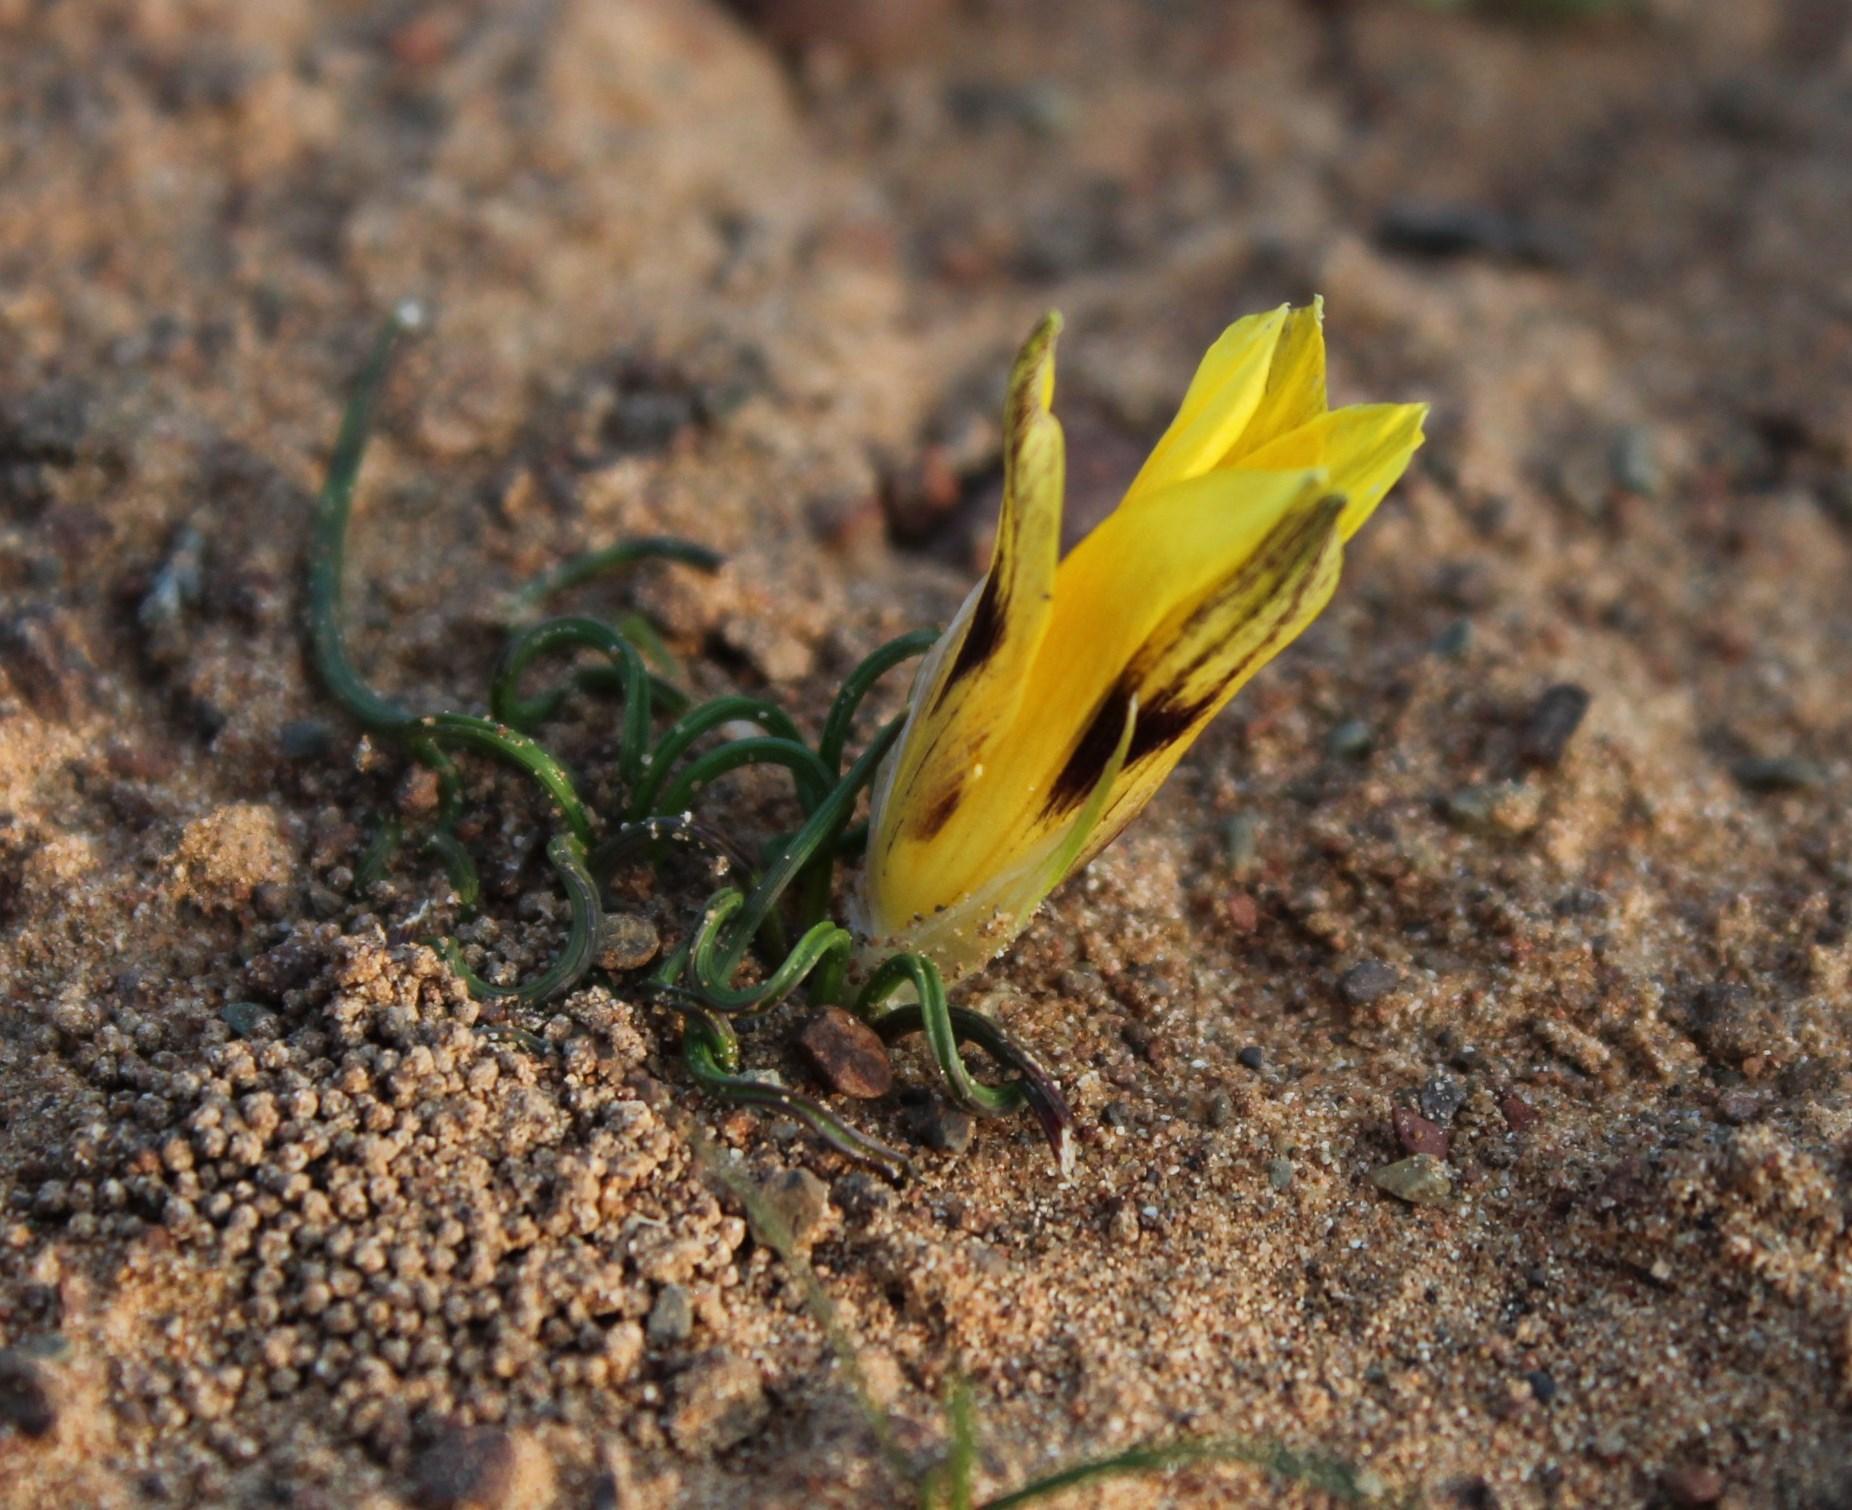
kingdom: Plantae
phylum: Tracheophyta
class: Liliopsida
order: Asparagales
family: Iridaceae
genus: Romulea
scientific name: Romulea tortuosa
